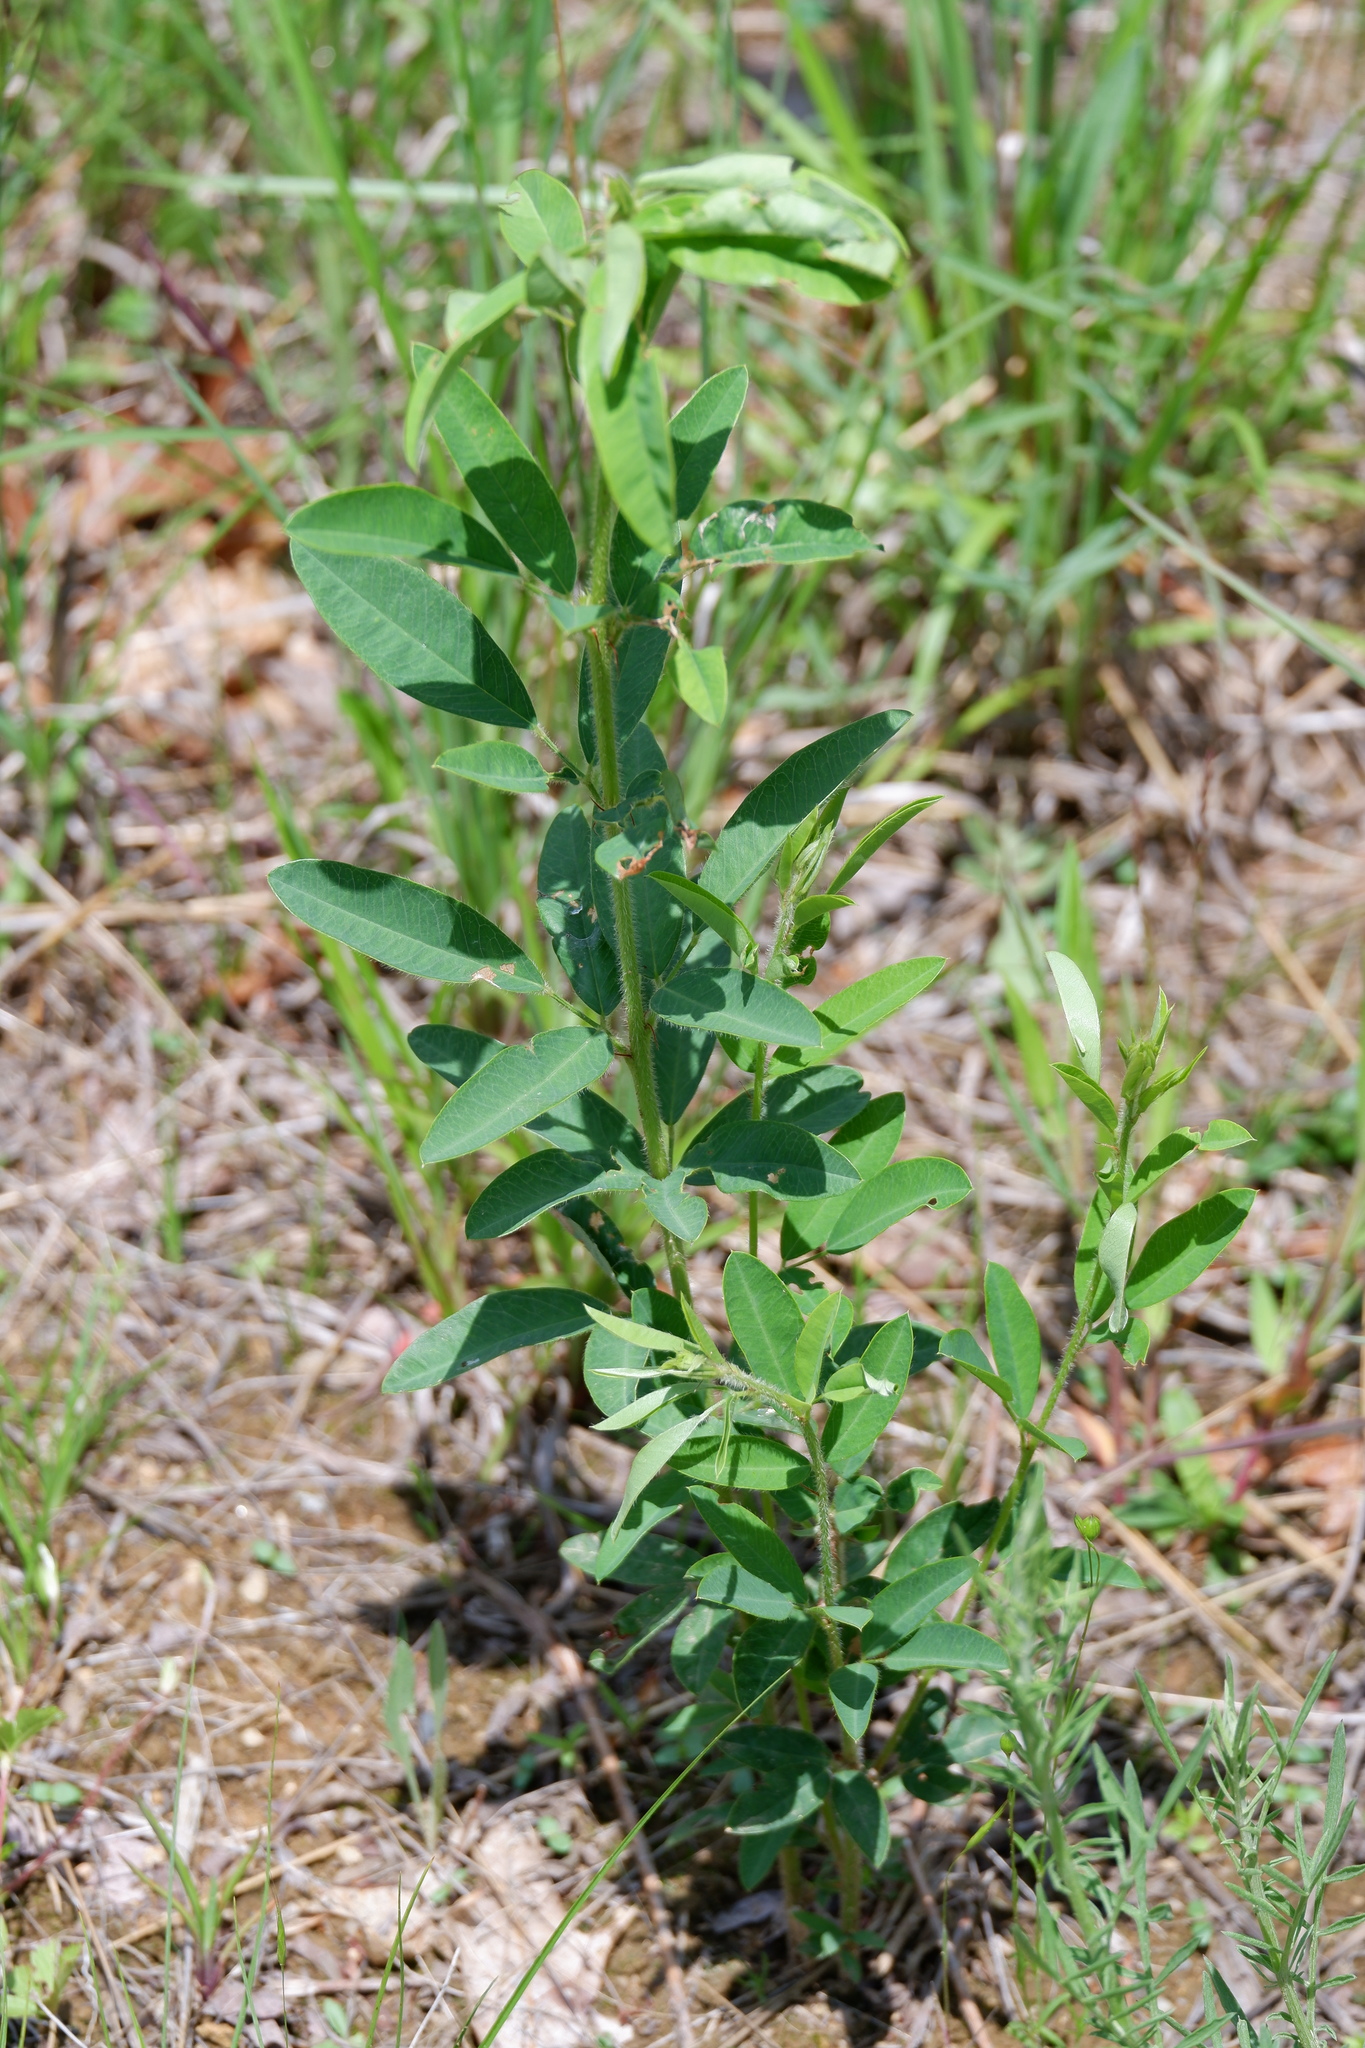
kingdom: Plantae
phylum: Tracheophyta
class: Magnoliopsida
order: Fabales
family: Fabaceae
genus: Lespedeza
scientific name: Lespedeza capitata
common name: Dusty clover
